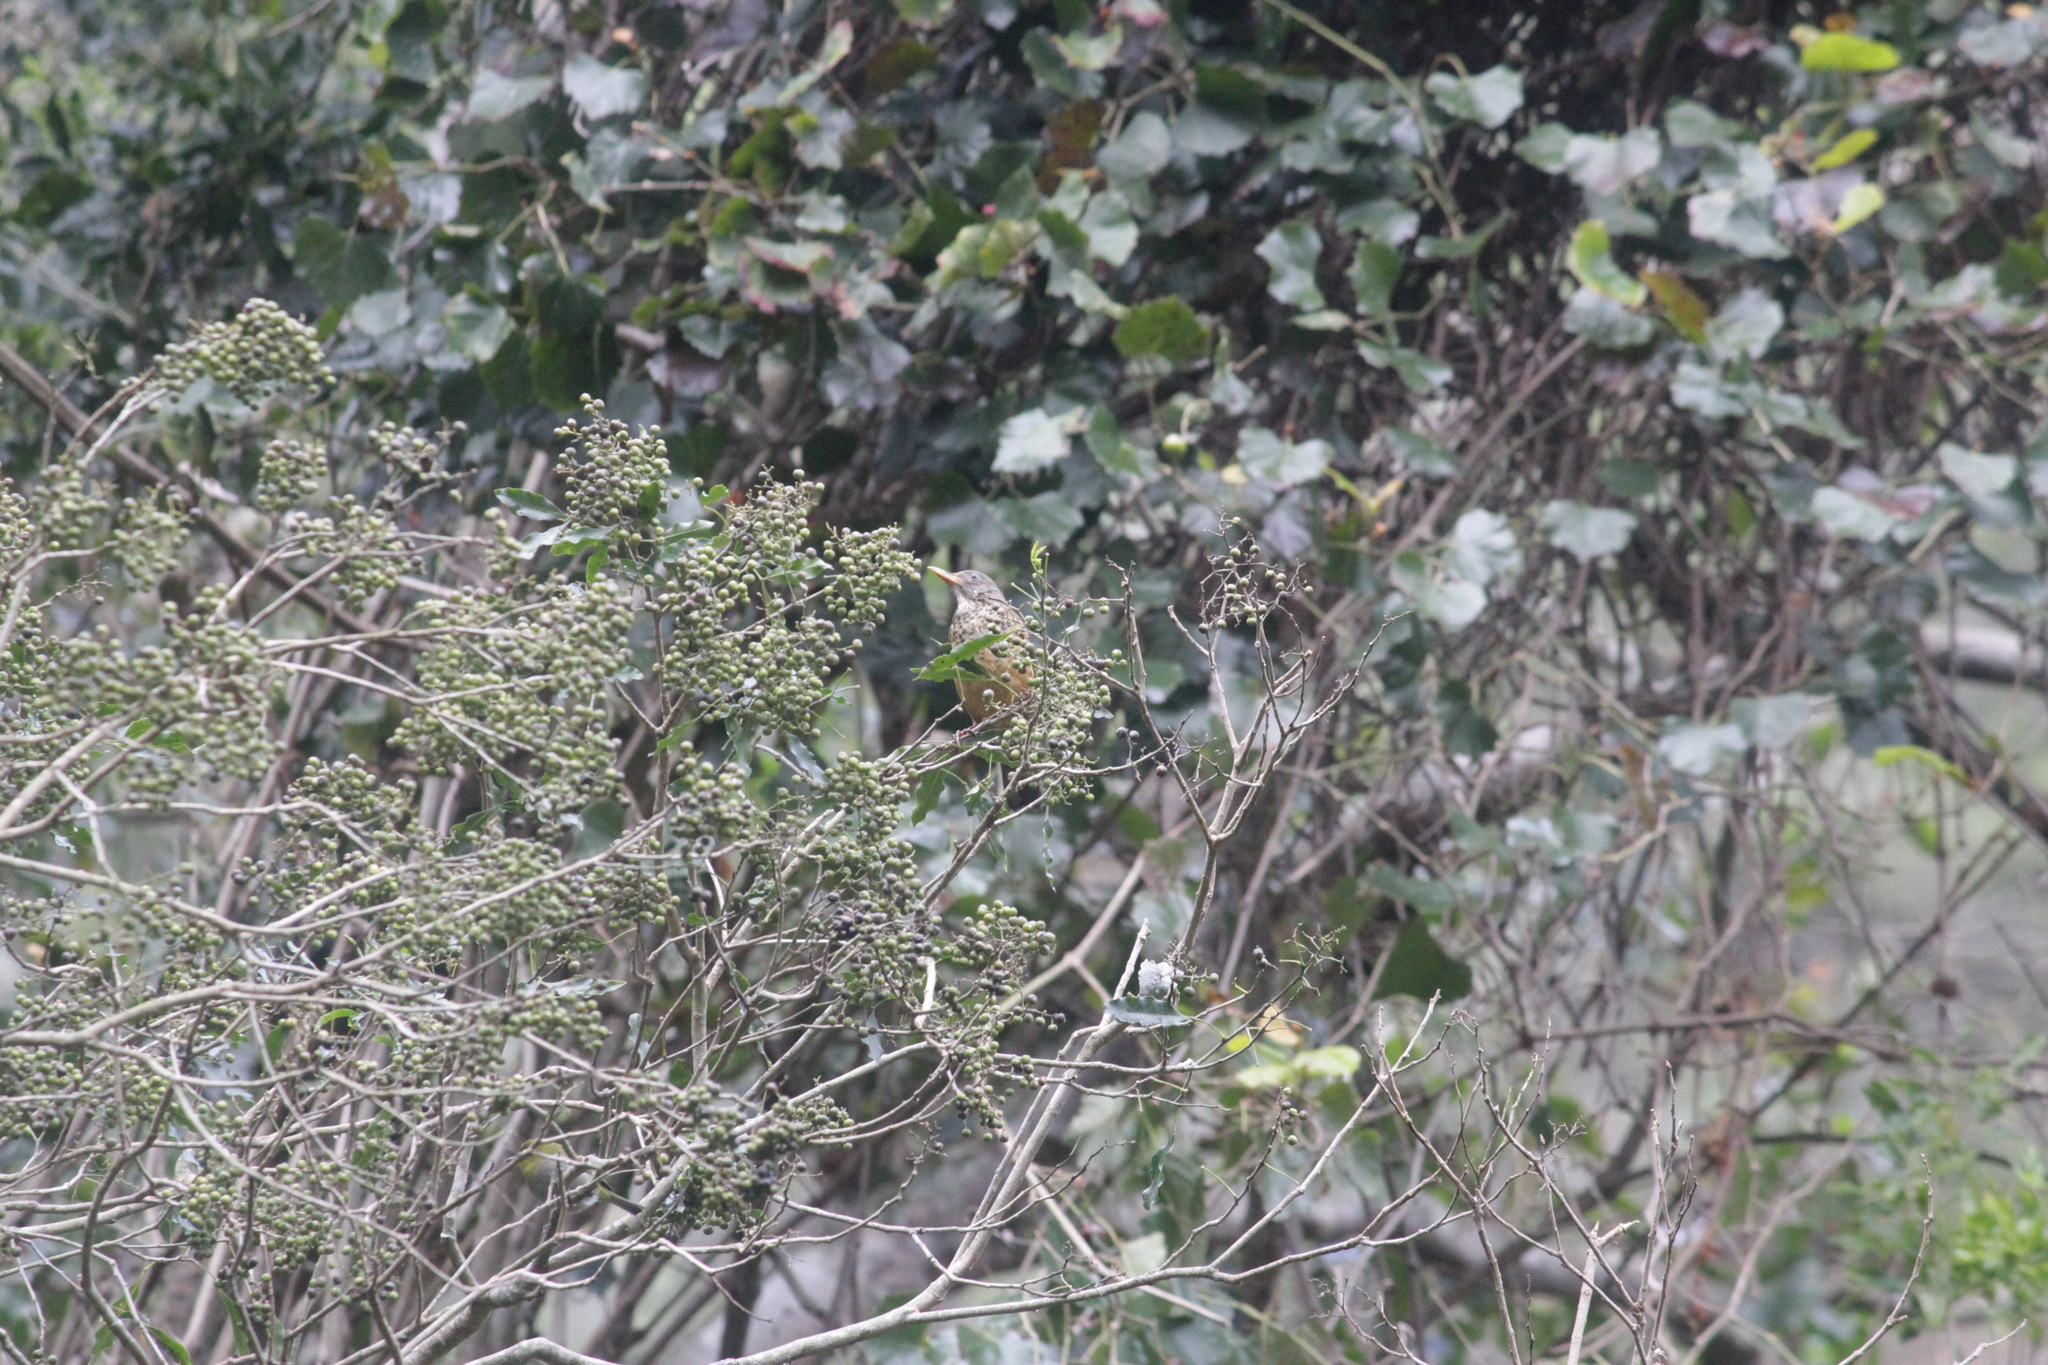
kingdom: Animalia
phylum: Chordata
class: Aves
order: Passeriformes
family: Turdidae
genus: Turdus
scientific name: Turdus olivaceus
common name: Olive thrush
